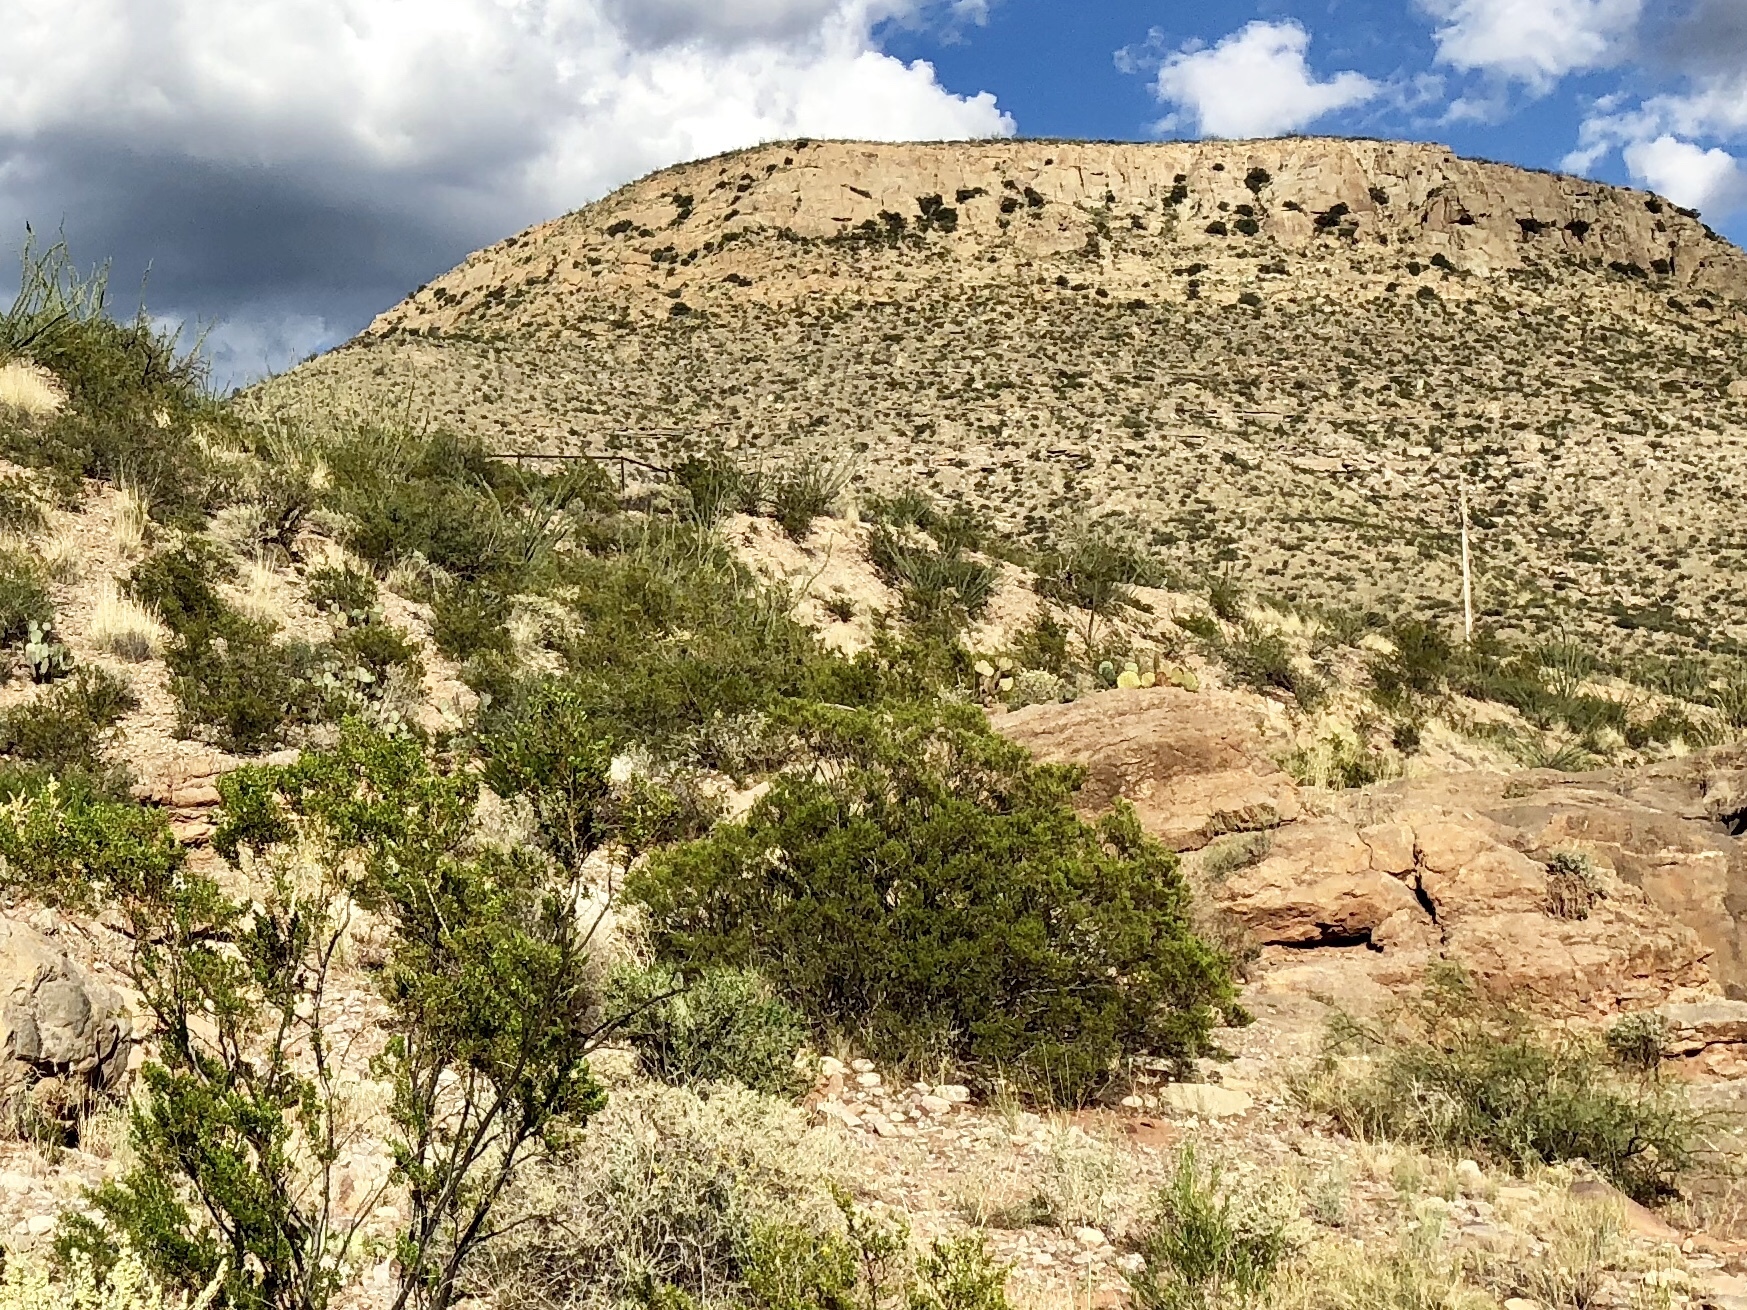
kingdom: Plantae
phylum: Tracheophyta
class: Magnoliopsida
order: Zygophyllales
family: Zygophyllaceae
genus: Larrea
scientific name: Larrea tridentata
